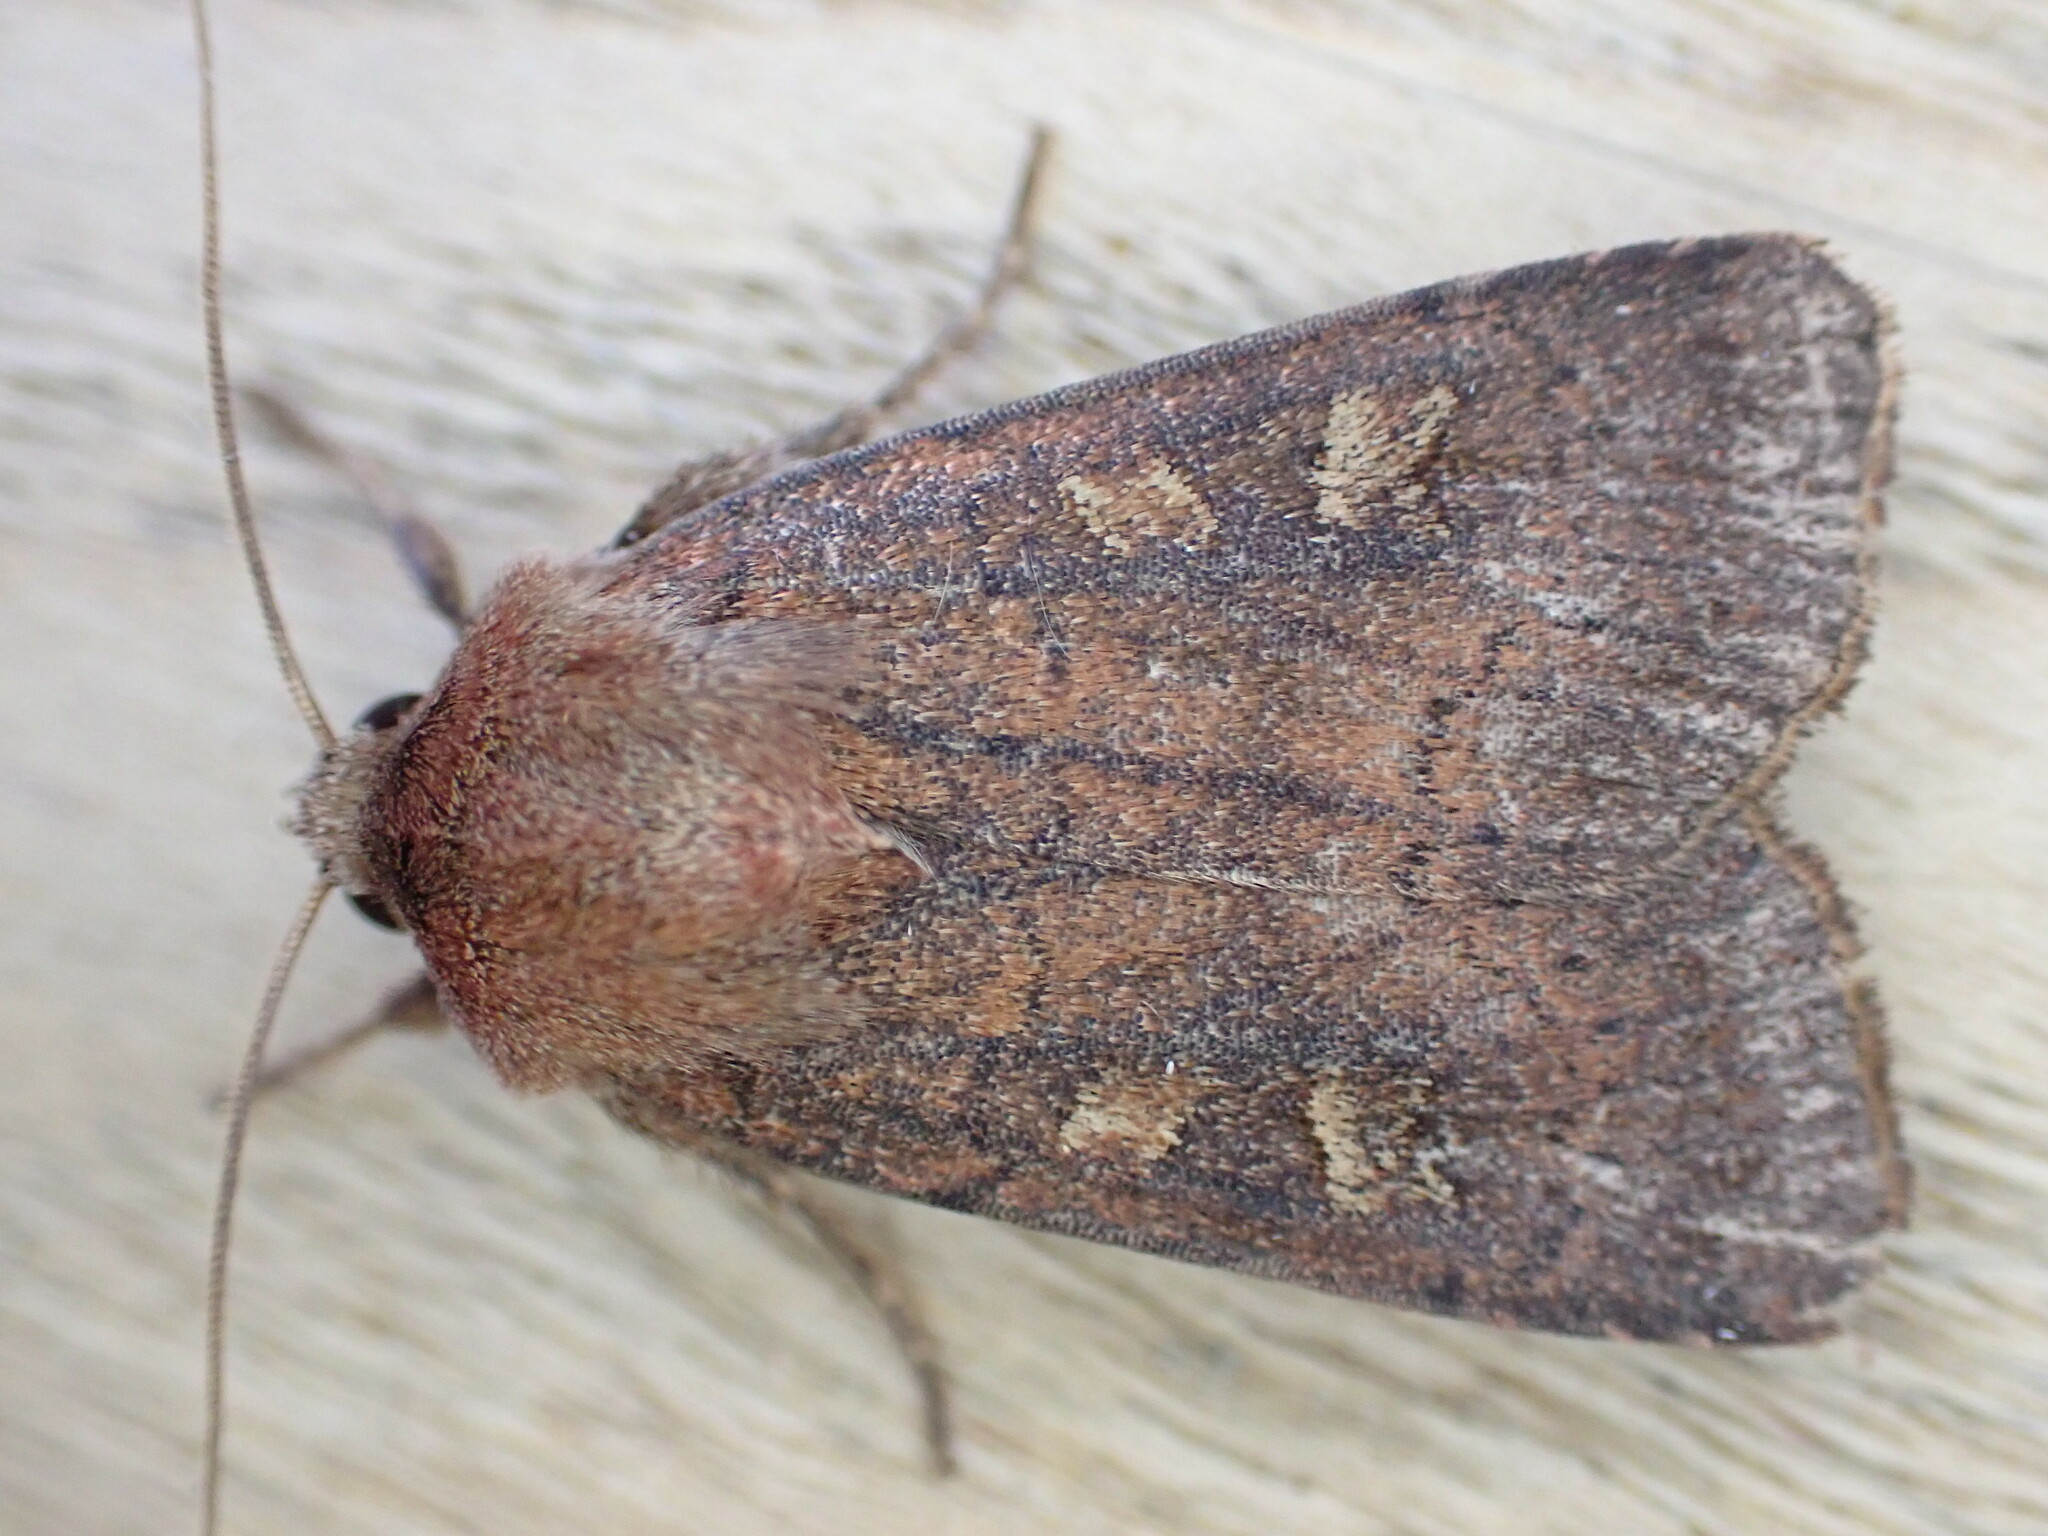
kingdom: Animalia
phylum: Arthropoda
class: Insecta
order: Lepidoptera
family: Noctuidae
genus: Xestia
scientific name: Xestia xanthographa
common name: Square-spot rustic
